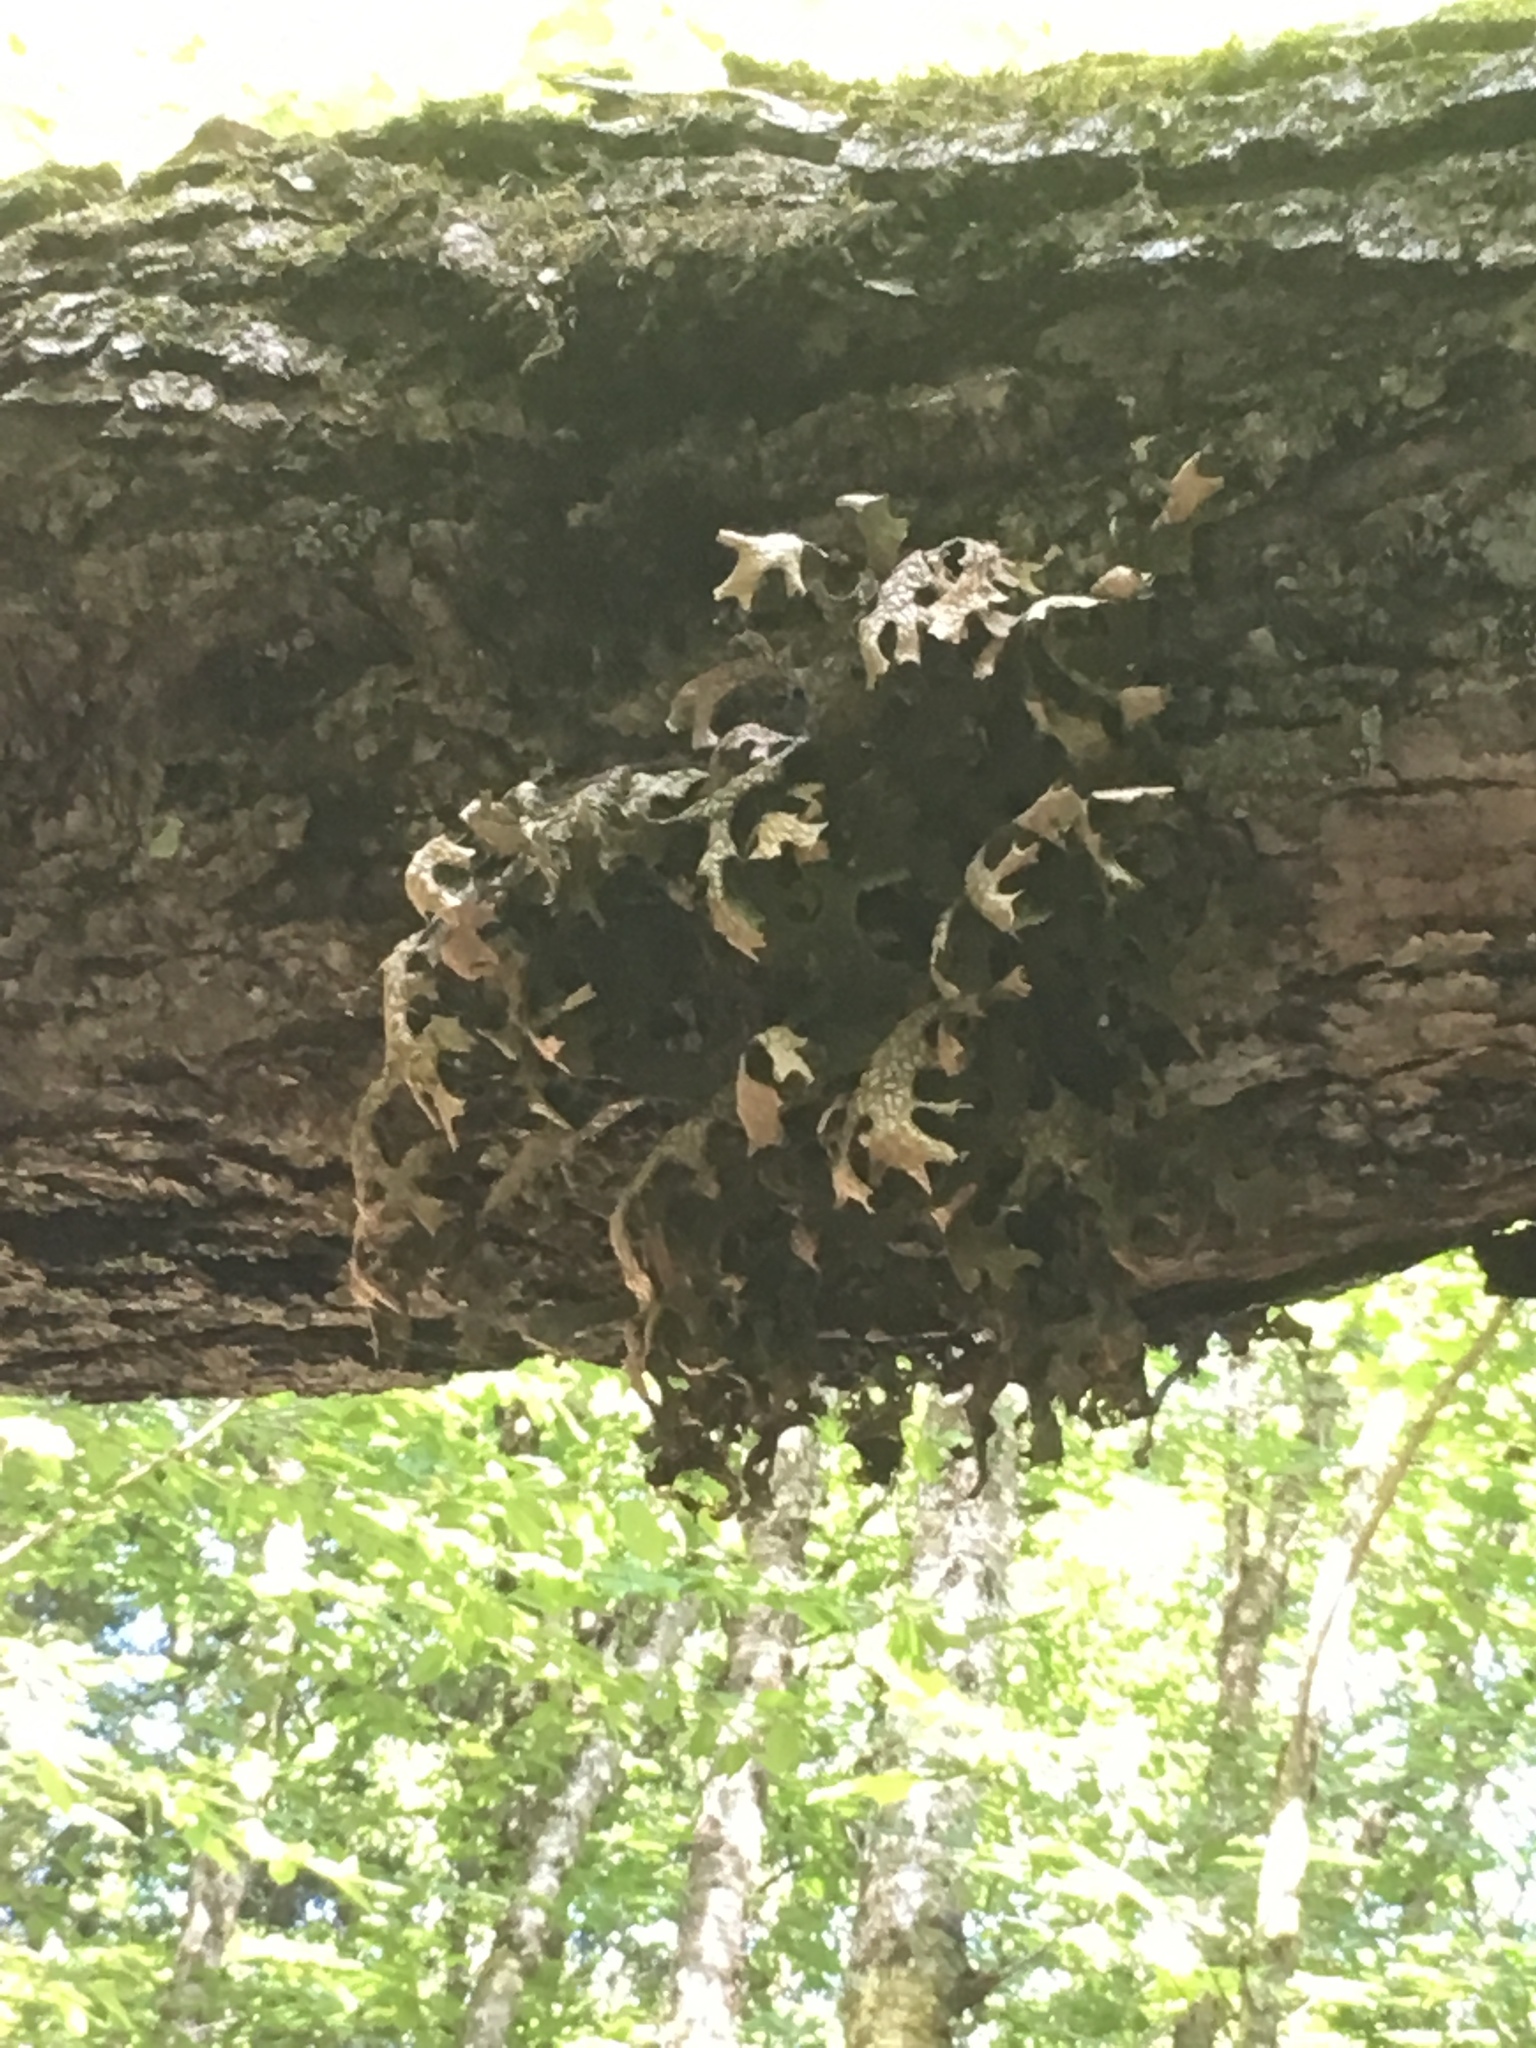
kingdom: Fungi
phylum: Ascomycota
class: Lecanoromycetes
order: Peltigerales
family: Lobariaceae
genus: Lobaria
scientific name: Lobaria pulmonaria
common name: Lungwort
